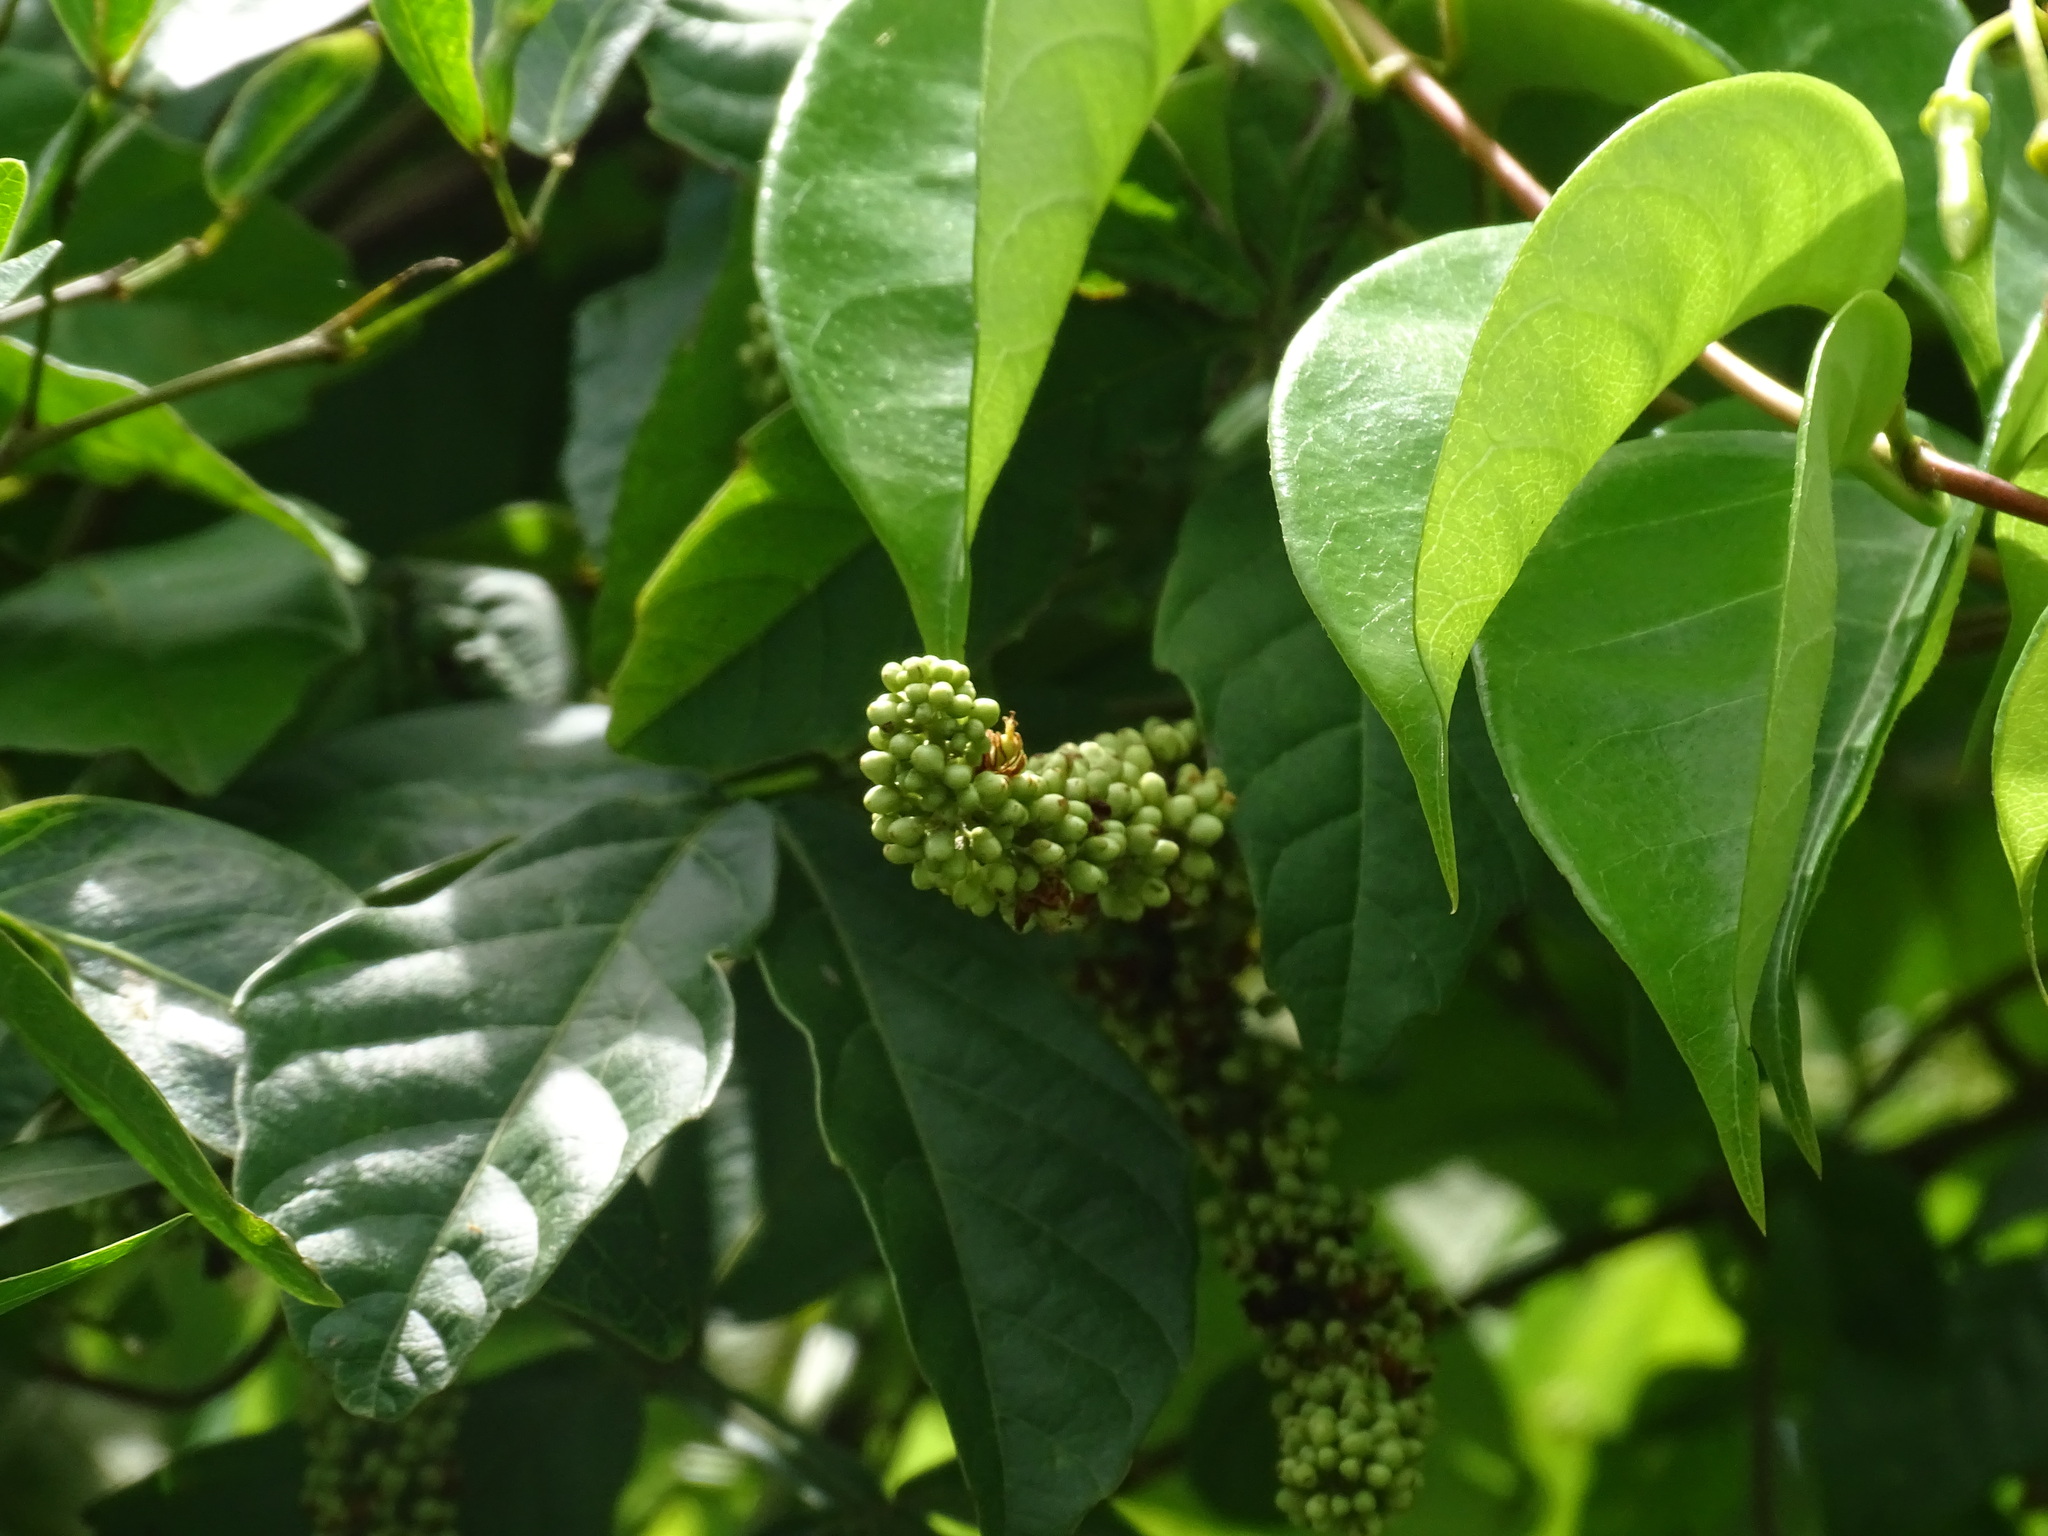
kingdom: Plantae
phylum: Tracheophyta
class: Magnoliopsida
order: Sapindales
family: Sapindaceae
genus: Paullinia
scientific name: Paullinia pinnata
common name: Barbasco
